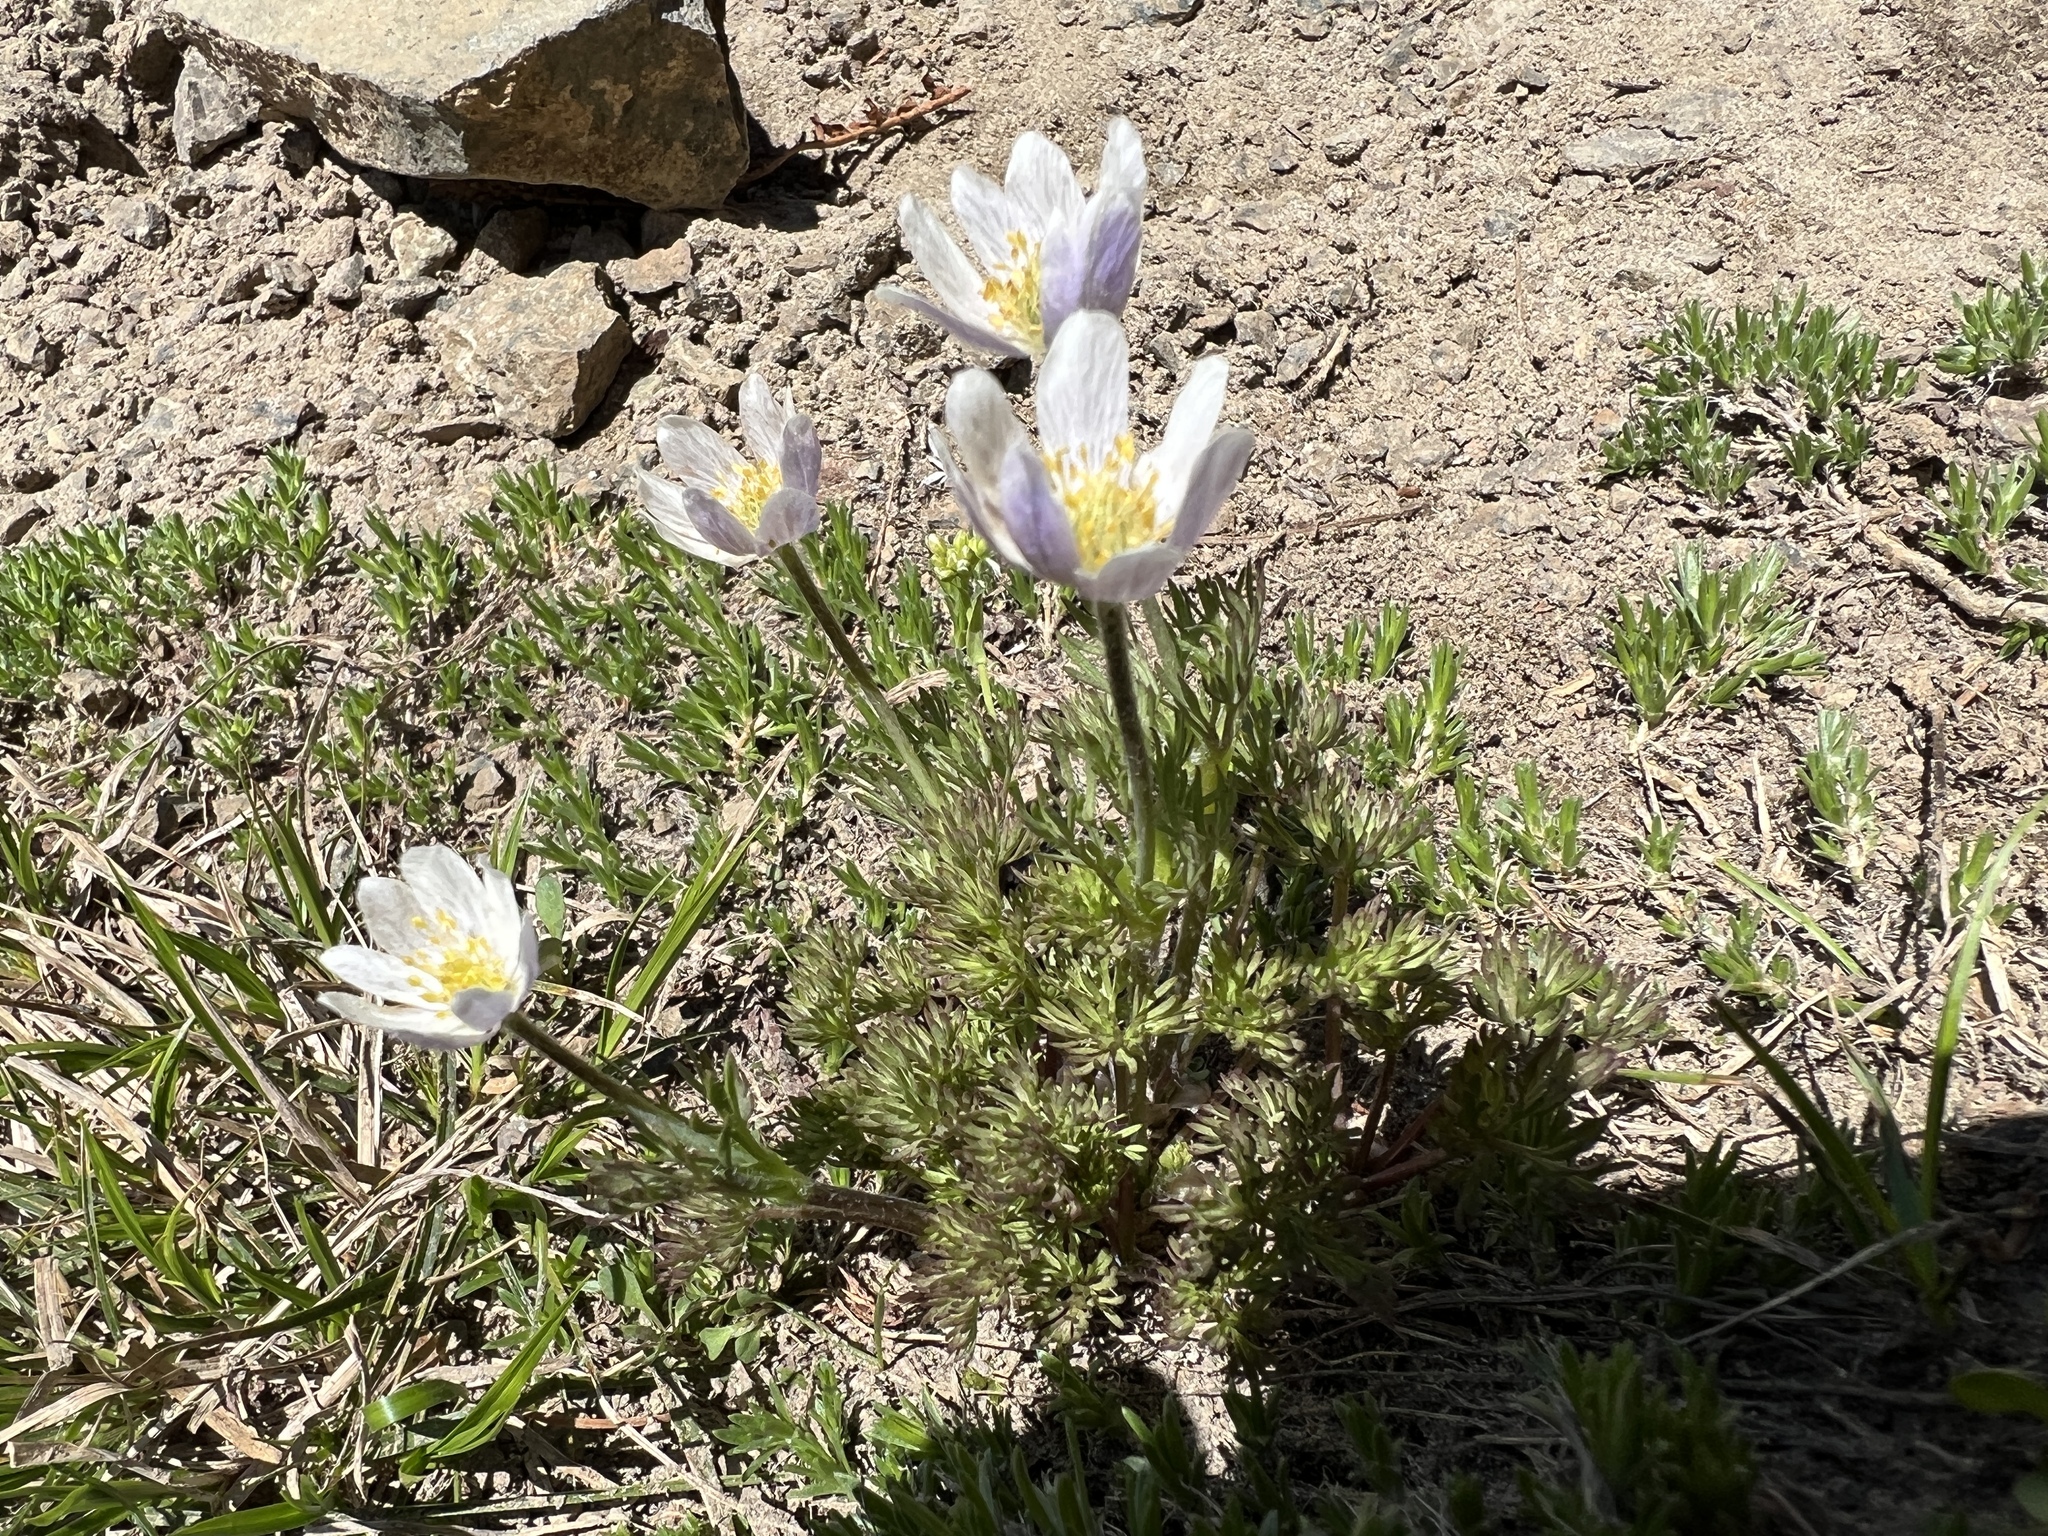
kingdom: Plantae
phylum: Tracheophyta
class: Magnoliopsida
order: Ranunculales
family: Ranunculaceae
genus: Anemone
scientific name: Anemone drummondii
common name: Drummond's anemone
